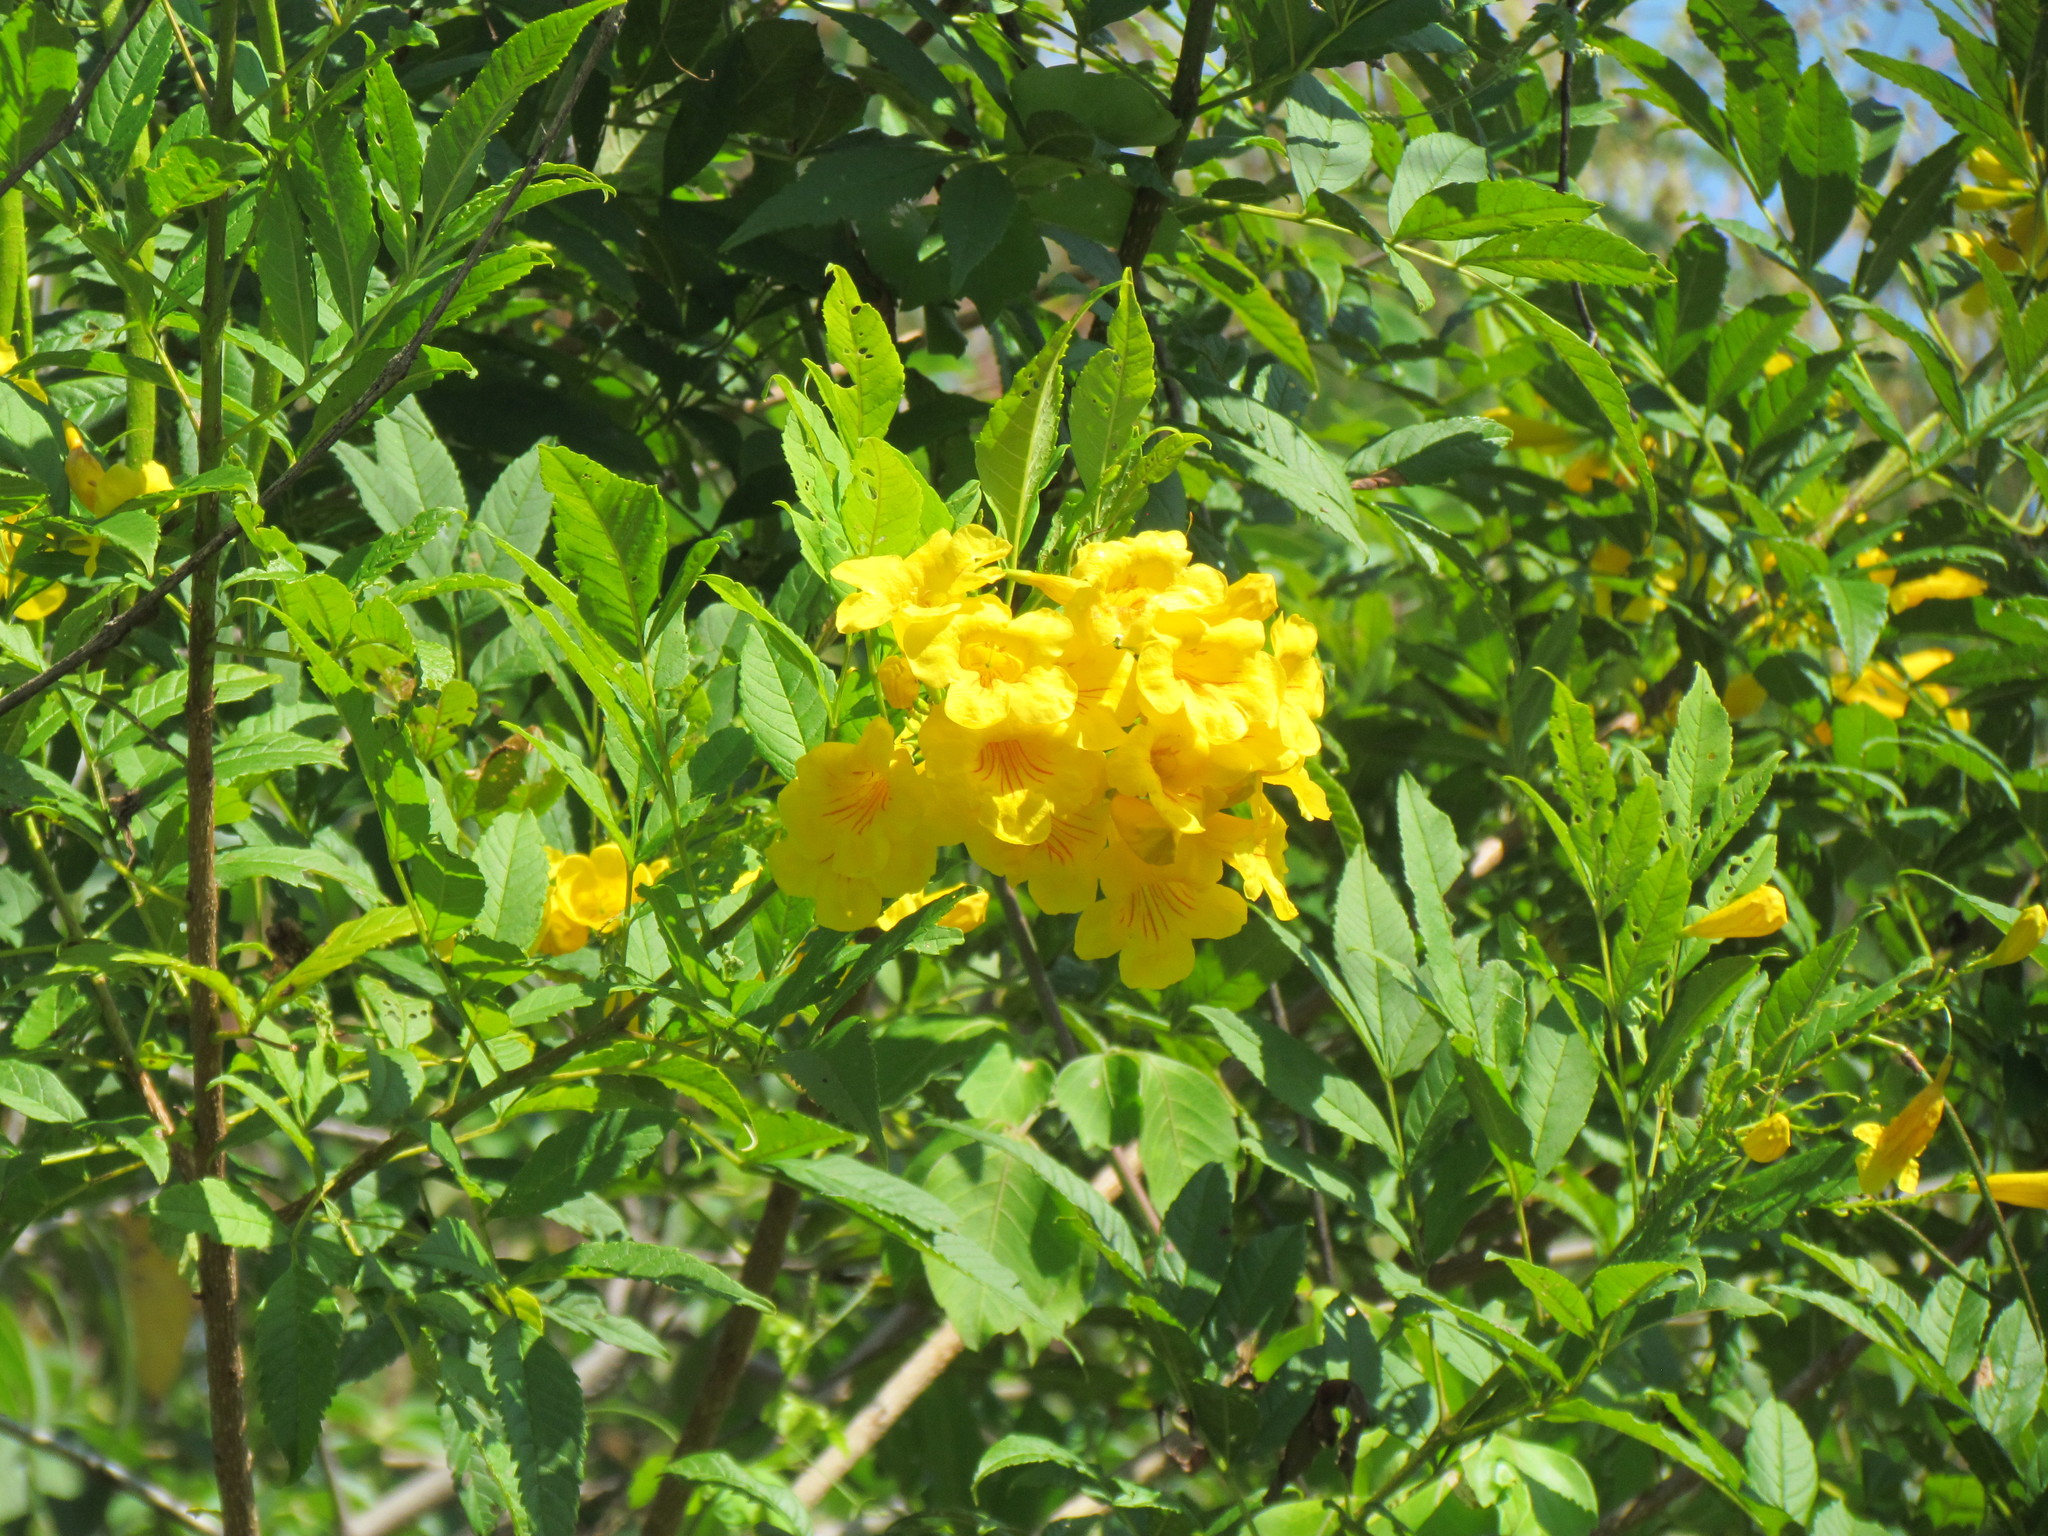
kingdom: Plantae
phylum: Tracheophyta
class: Magnoliopsida
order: Lamiales
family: Bignoniaceae
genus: Tecoma
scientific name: Tecoma stans
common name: Yellow trumpetbush
